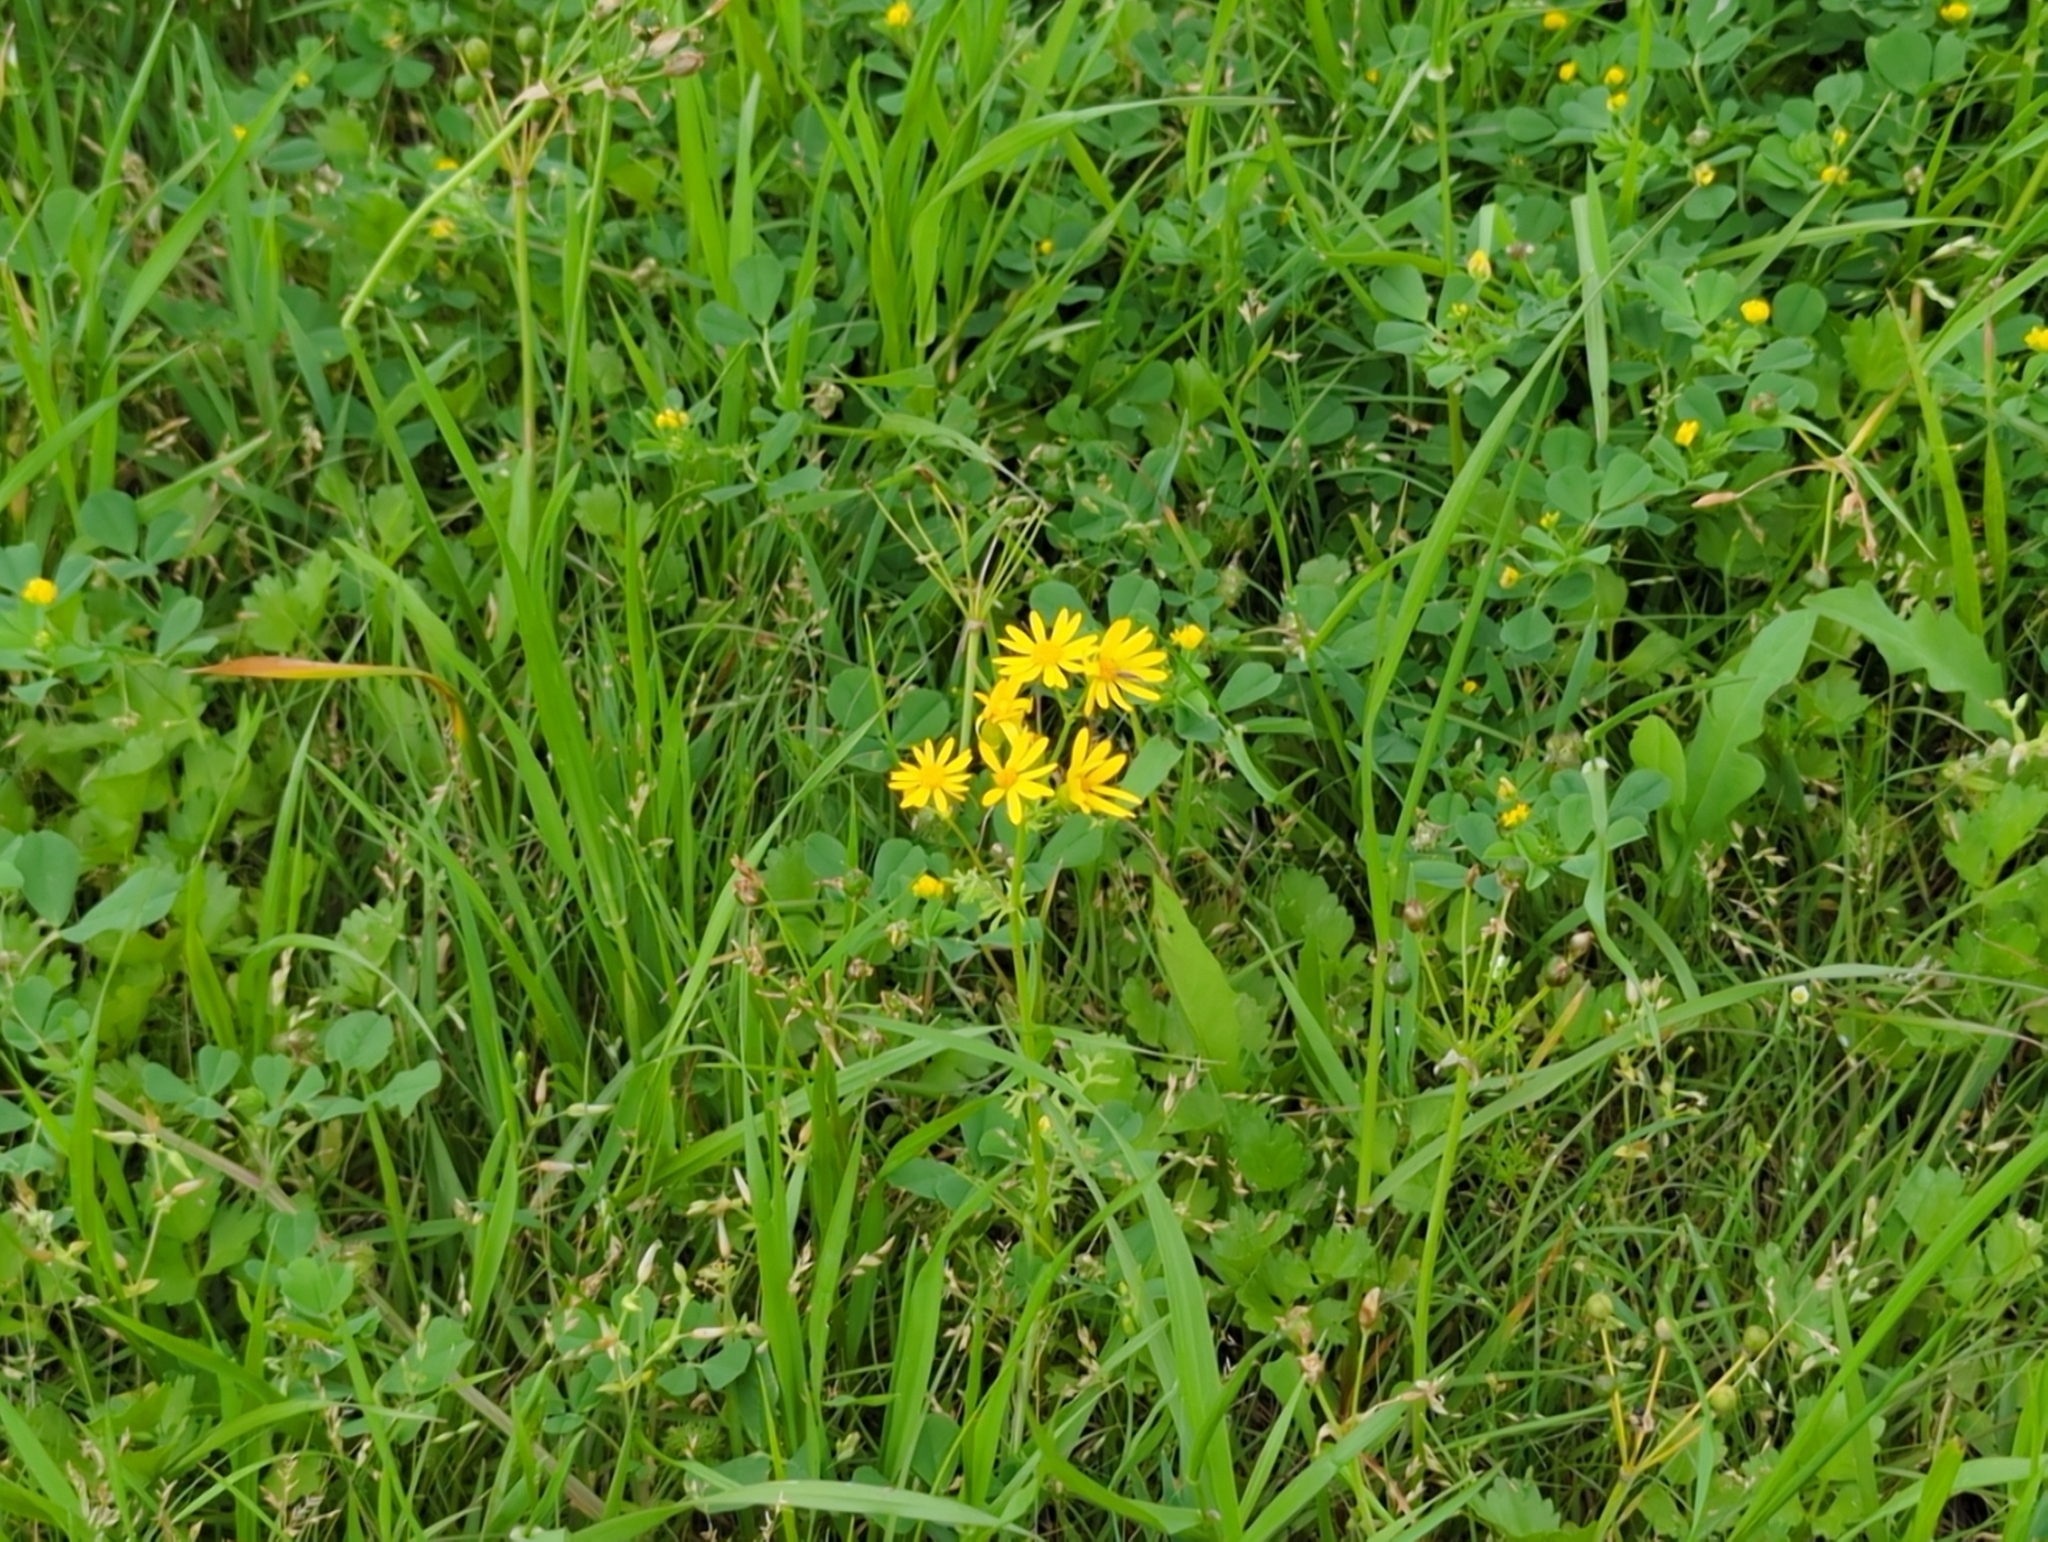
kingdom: Plantae
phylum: Tracheophyta
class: Magnoliopsida
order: Asterales
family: Asteraceae
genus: Packera
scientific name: Packera tampicana
